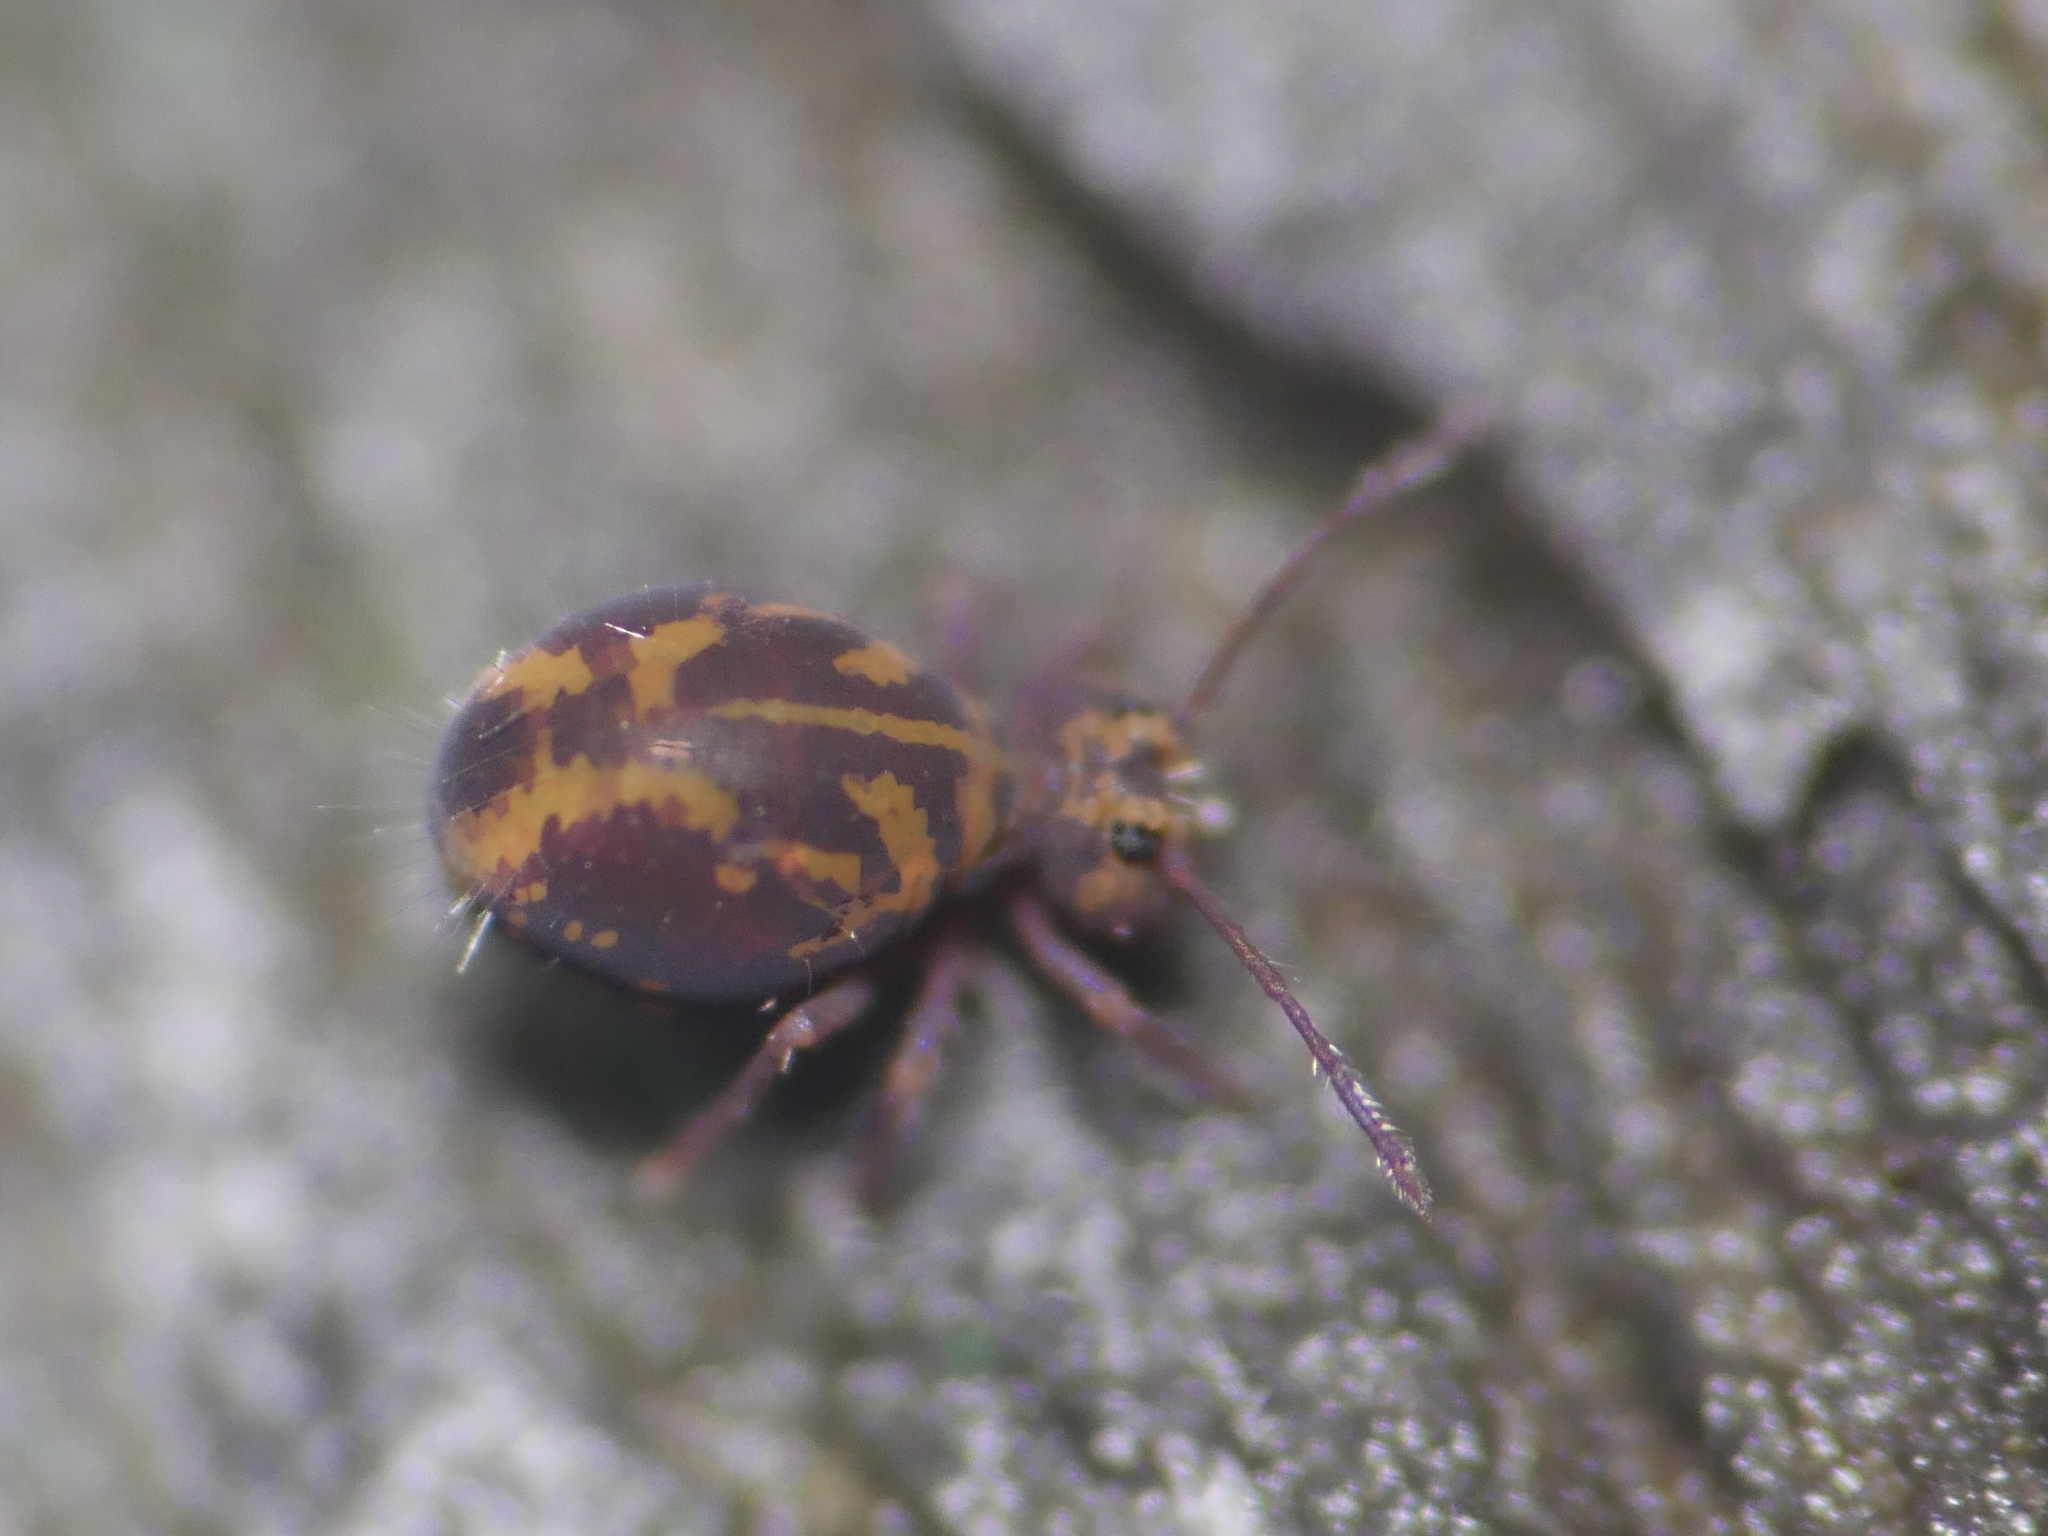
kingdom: Animalia
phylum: Arthropoda
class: Collembola
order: Symphypleona
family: Dicyrtomidae
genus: Dicyrtomina
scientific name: Dicyrtomina violacea
